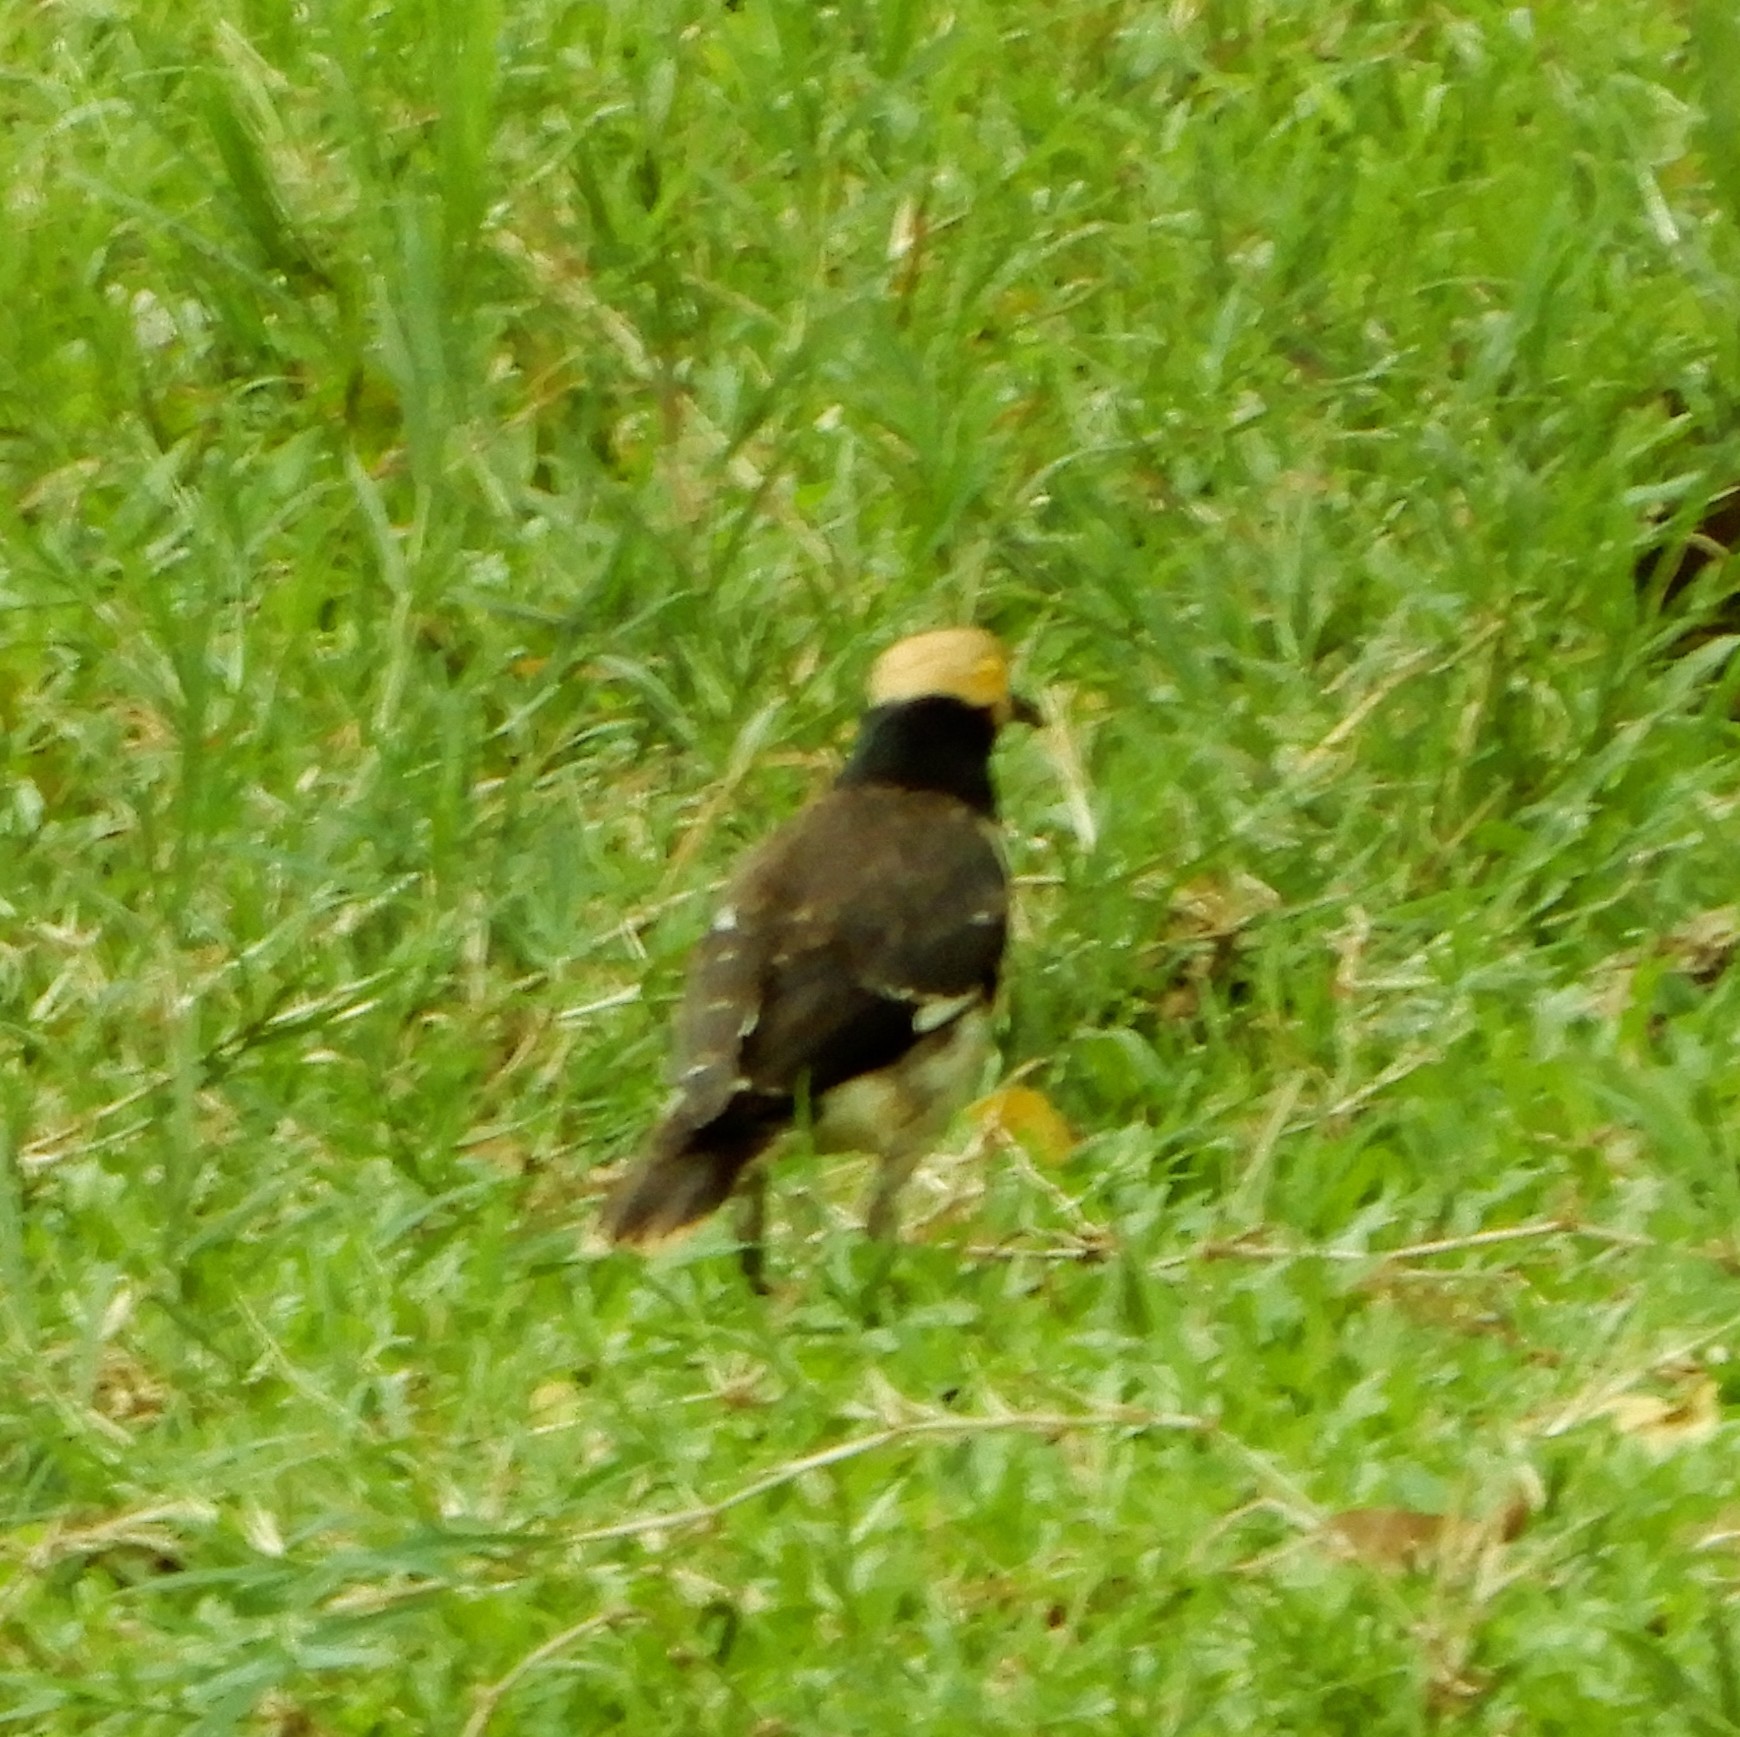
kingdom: Animalia
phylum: Chordata
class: Aves
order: Passeriformes
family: Sturnidae
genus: Gracupica
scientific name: Gracupica nigricollis
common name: Black-collared starling
